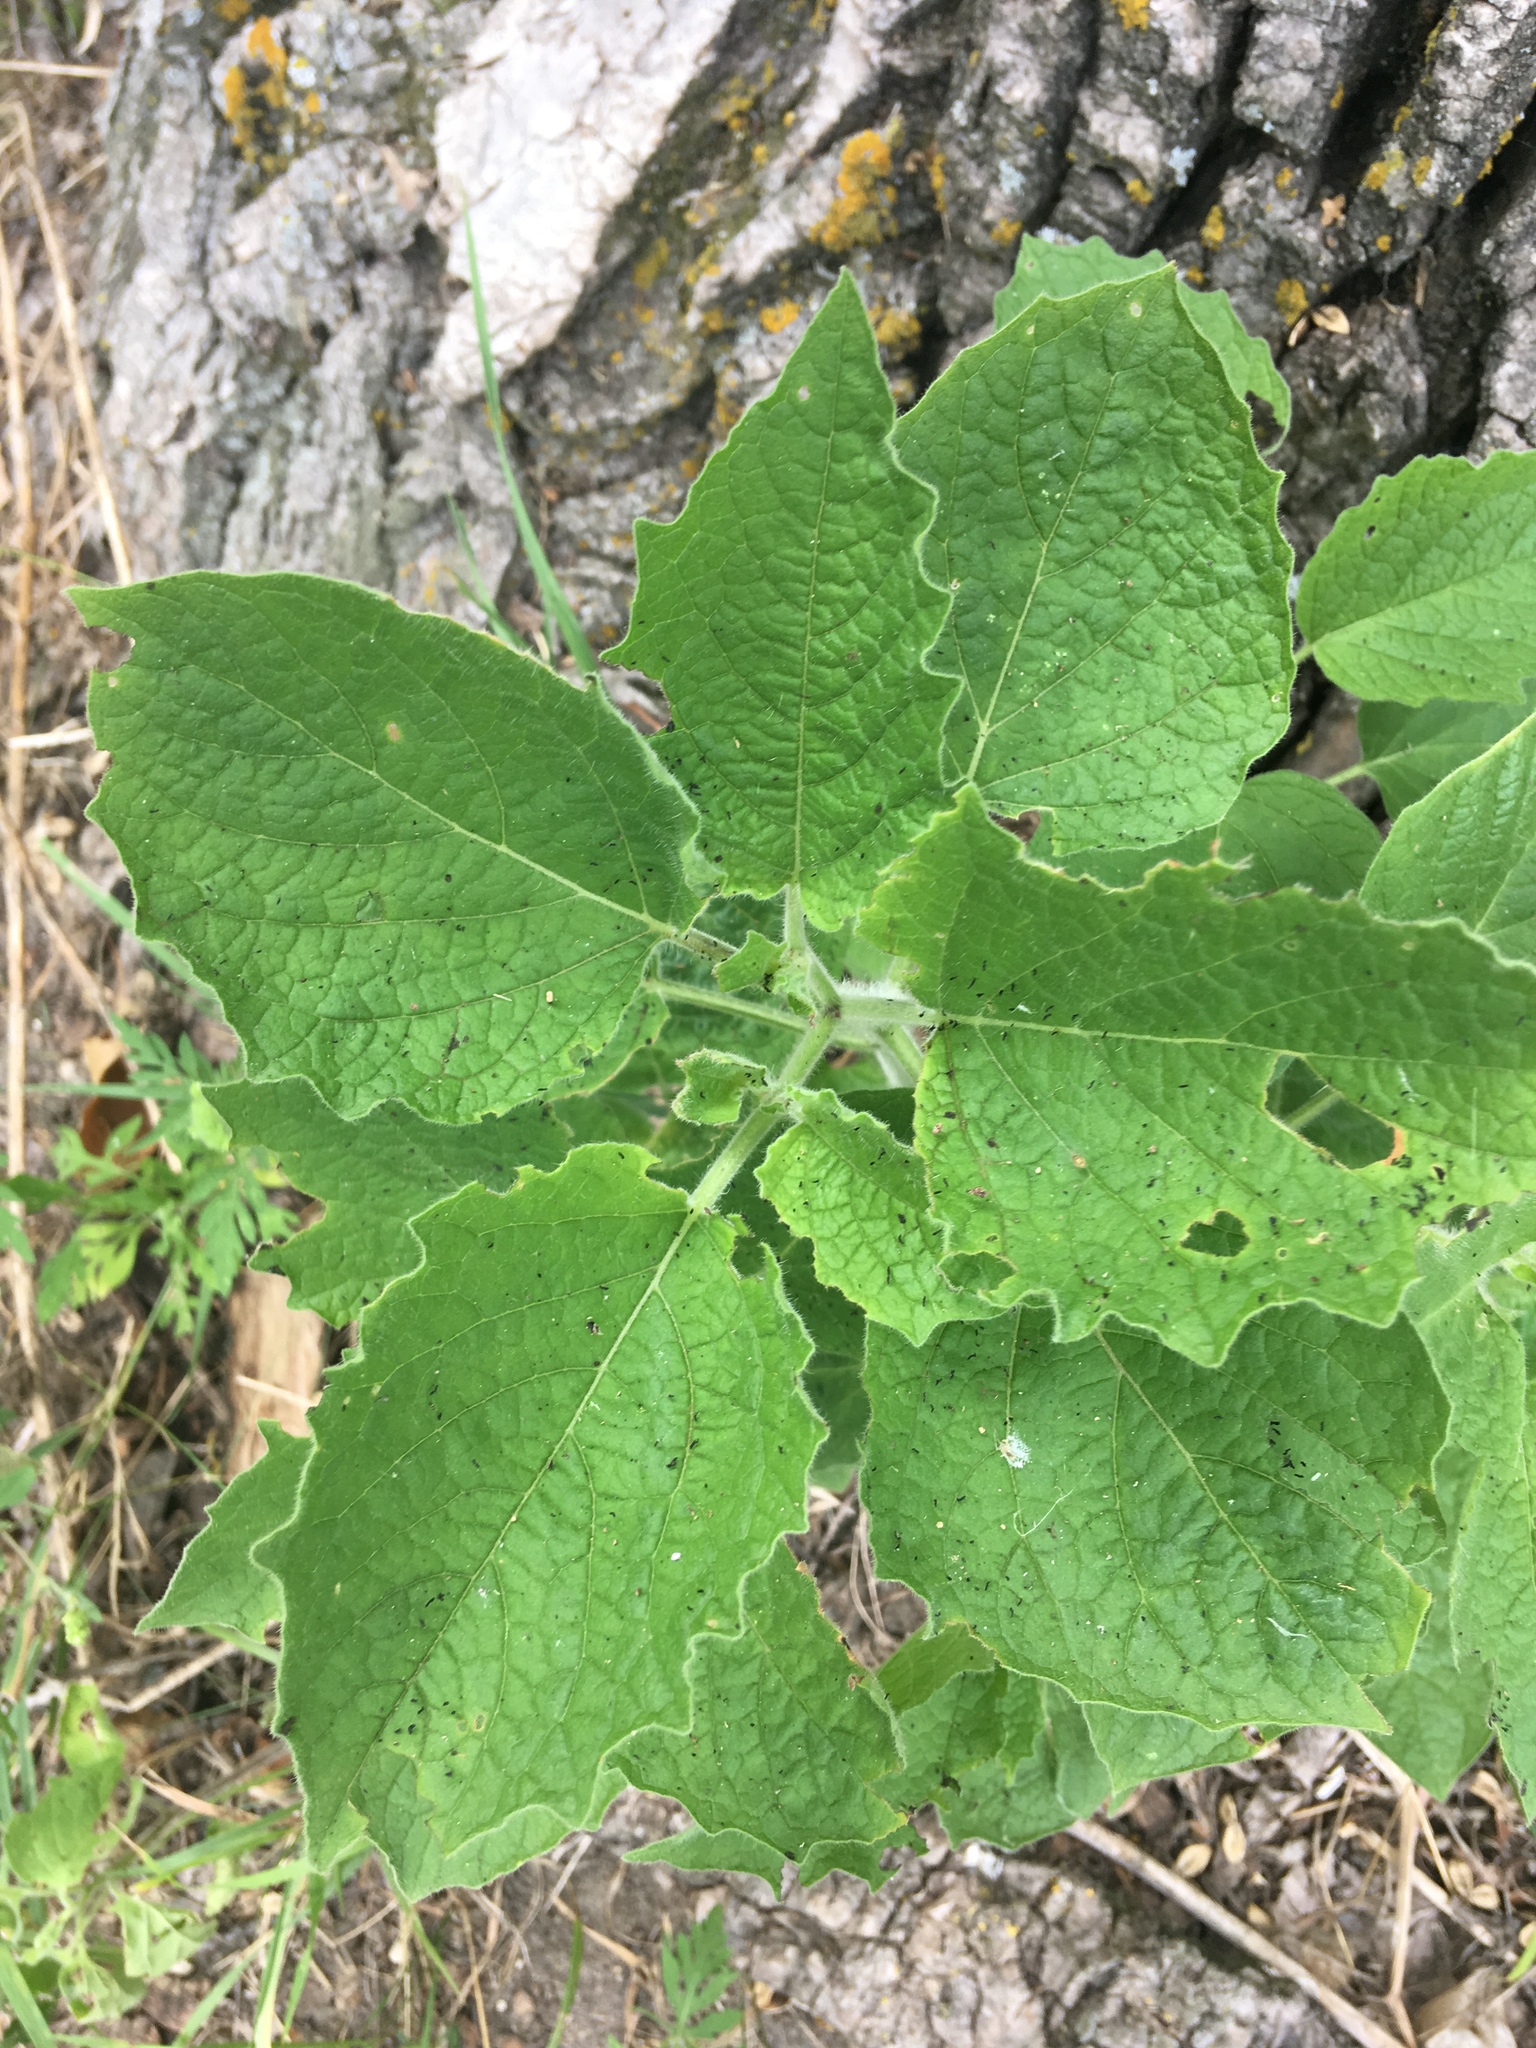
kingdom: Plantae
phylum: Tracheophyta
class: Magnoliopsida
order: Solanales
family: Solanaceae
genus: Physalis
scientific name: Physalis heterophylla
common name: Clammy ground-cherry
